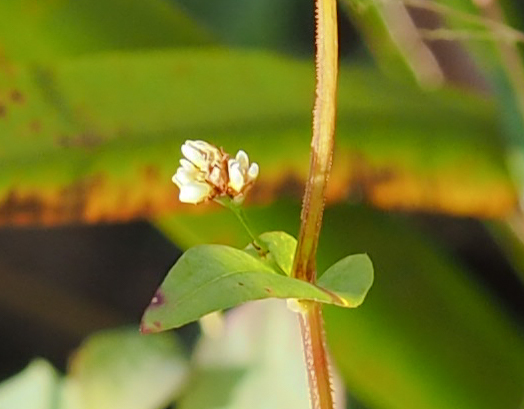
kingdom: Plantae
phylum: Tracheophyta
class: Magnoliopsida
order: Caryophyllales
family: Polygonaceae
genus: Persicaria
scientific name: Persicaria sagittata
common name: American tearthumb
